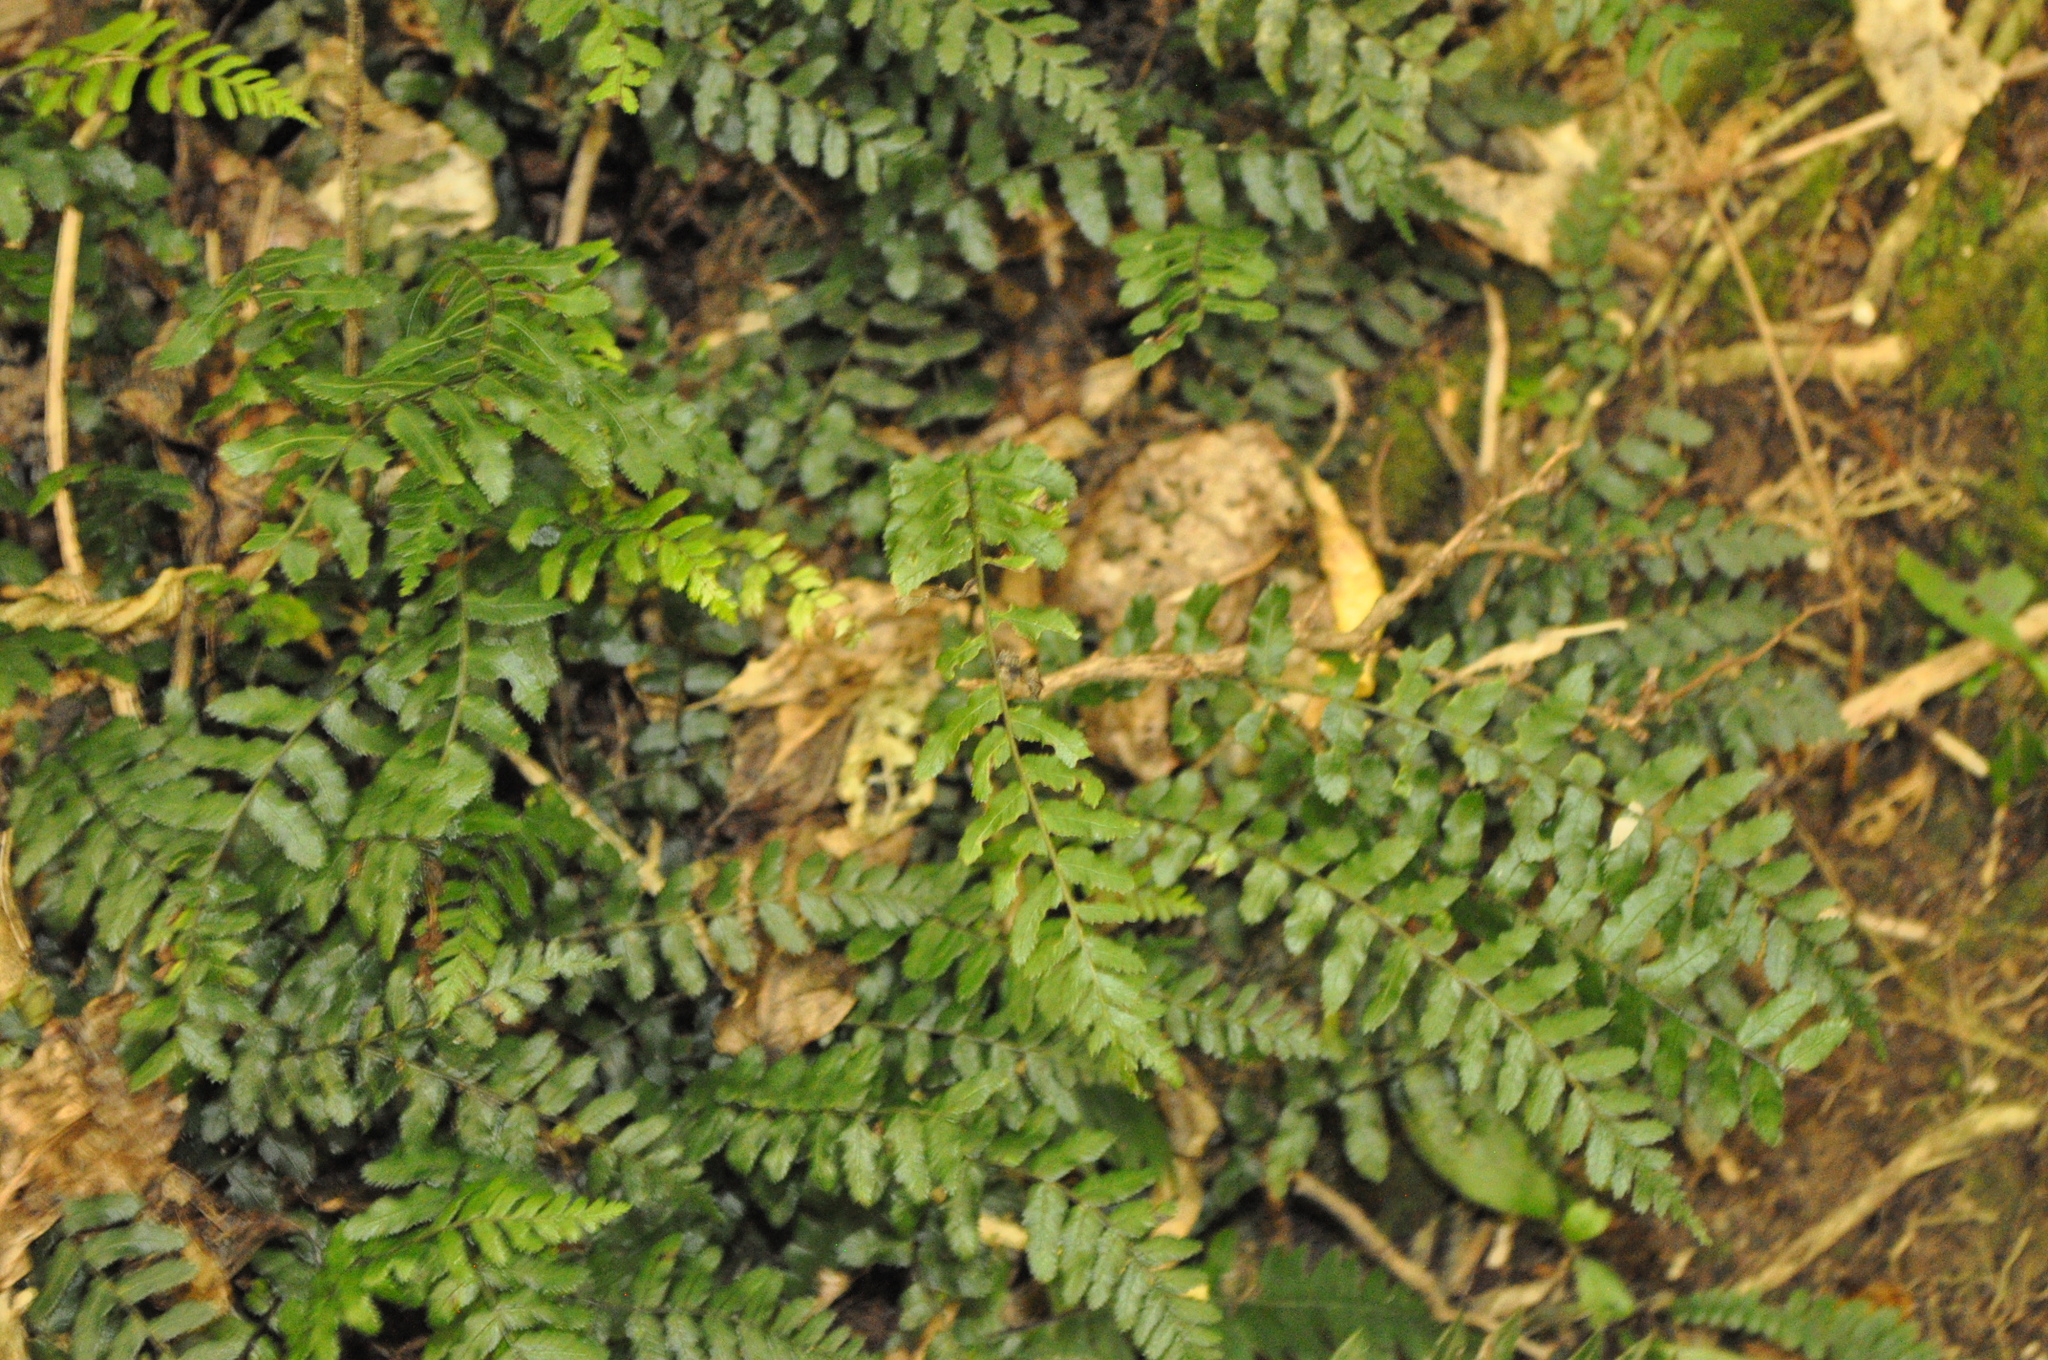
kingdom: Plantae
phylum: Tracheophyta
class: Polypodiopsida
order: Polypodiales
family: Blechnaceae
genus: Icarus
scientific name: Icarus filiformis
